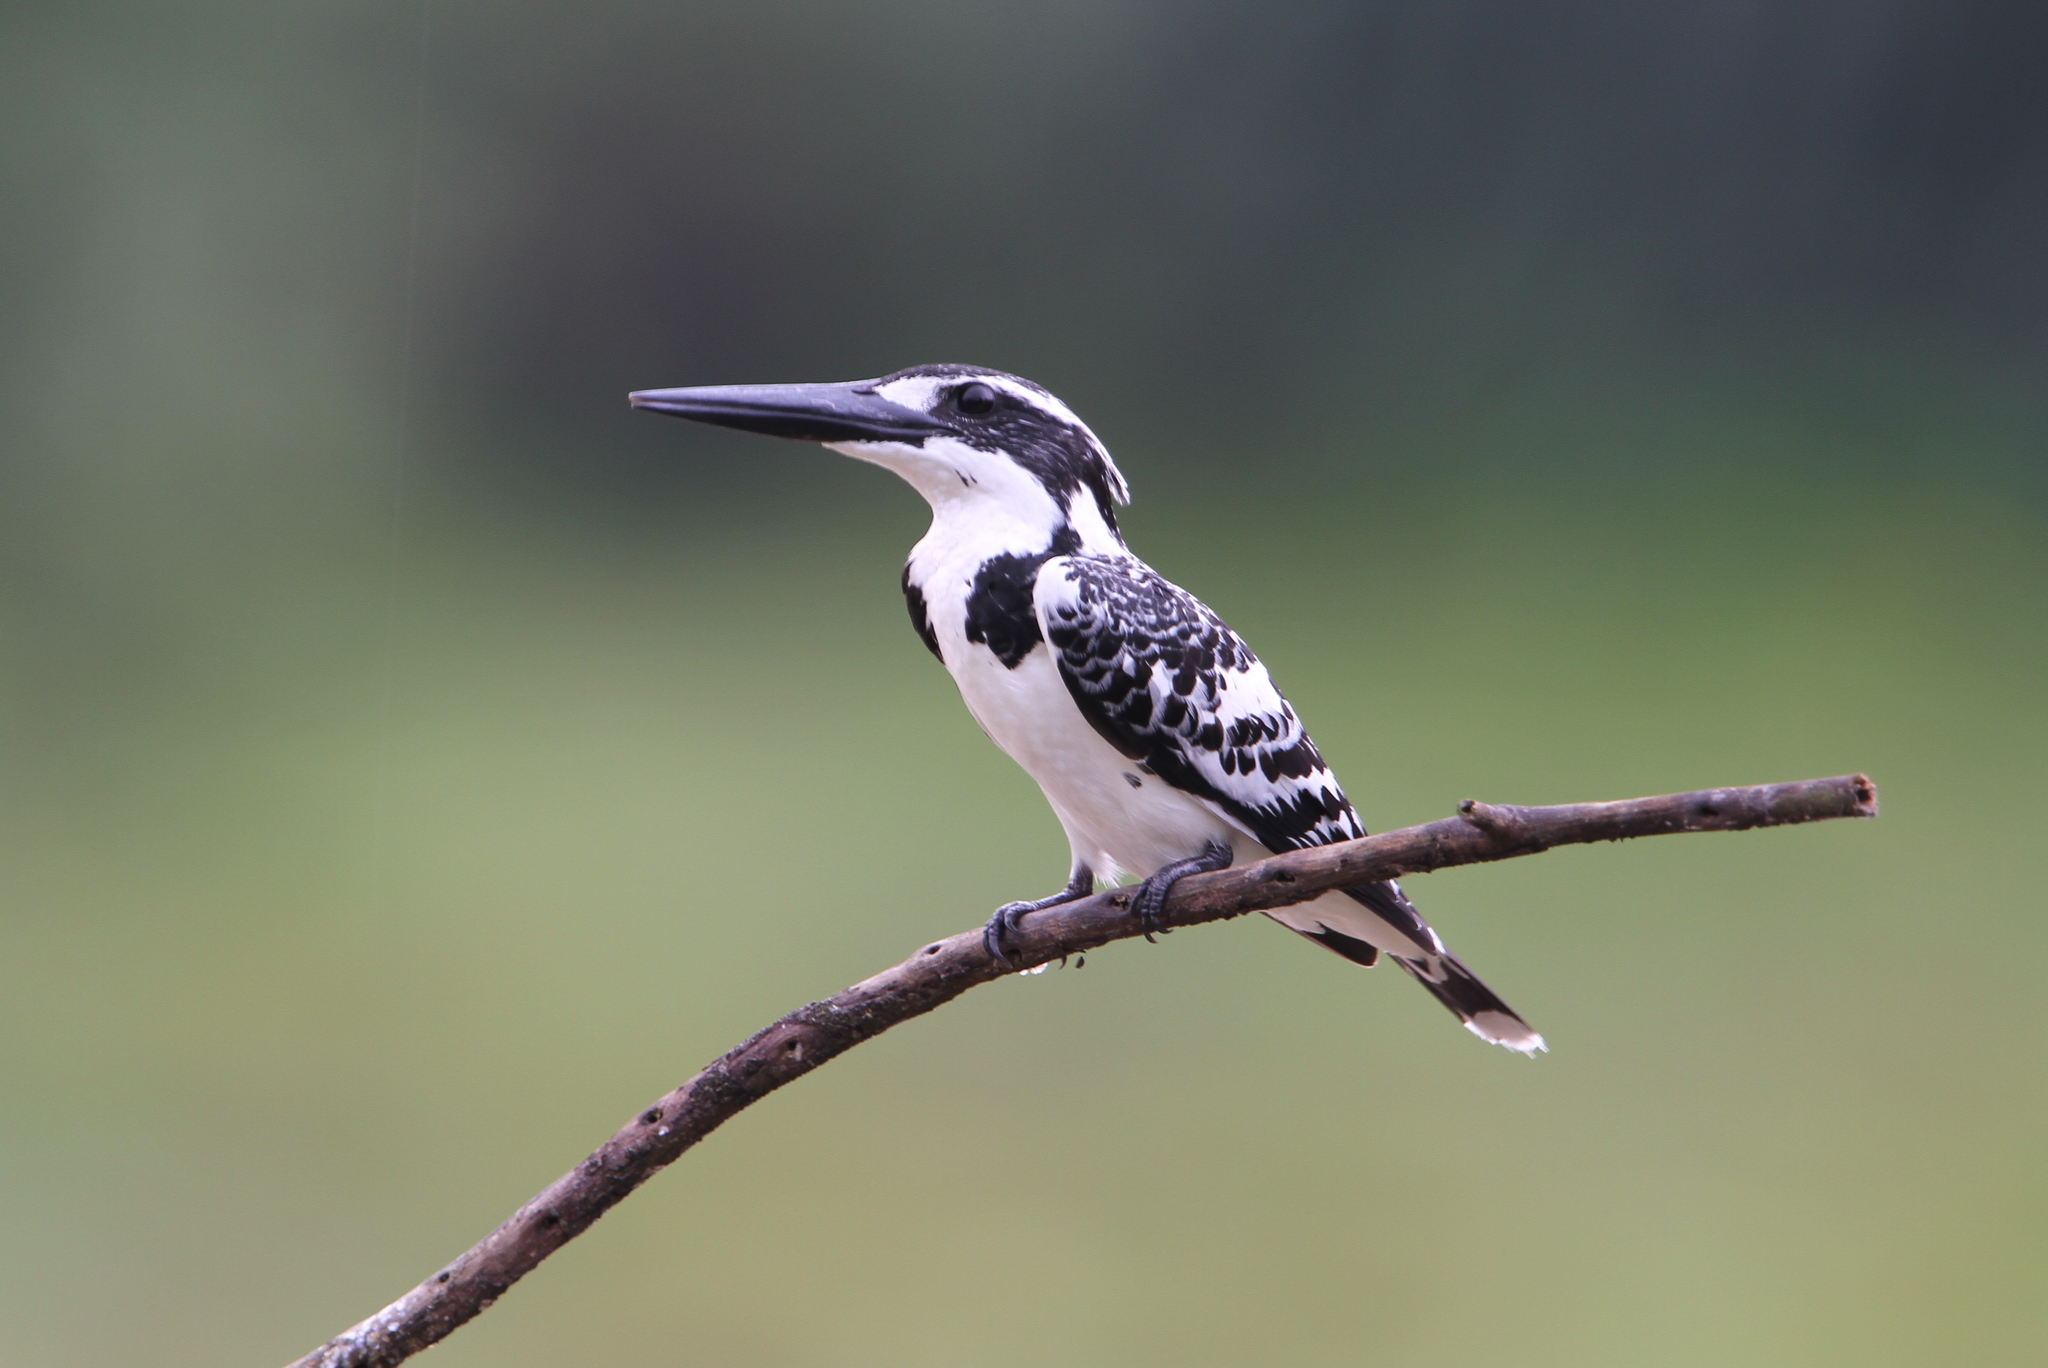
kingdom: Animalia
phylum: Chordata
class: Aves
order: Coraciiformes
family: Alcedinidae
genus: Ceryle
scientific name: Ceryle rudis
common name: Pied kingfisher
